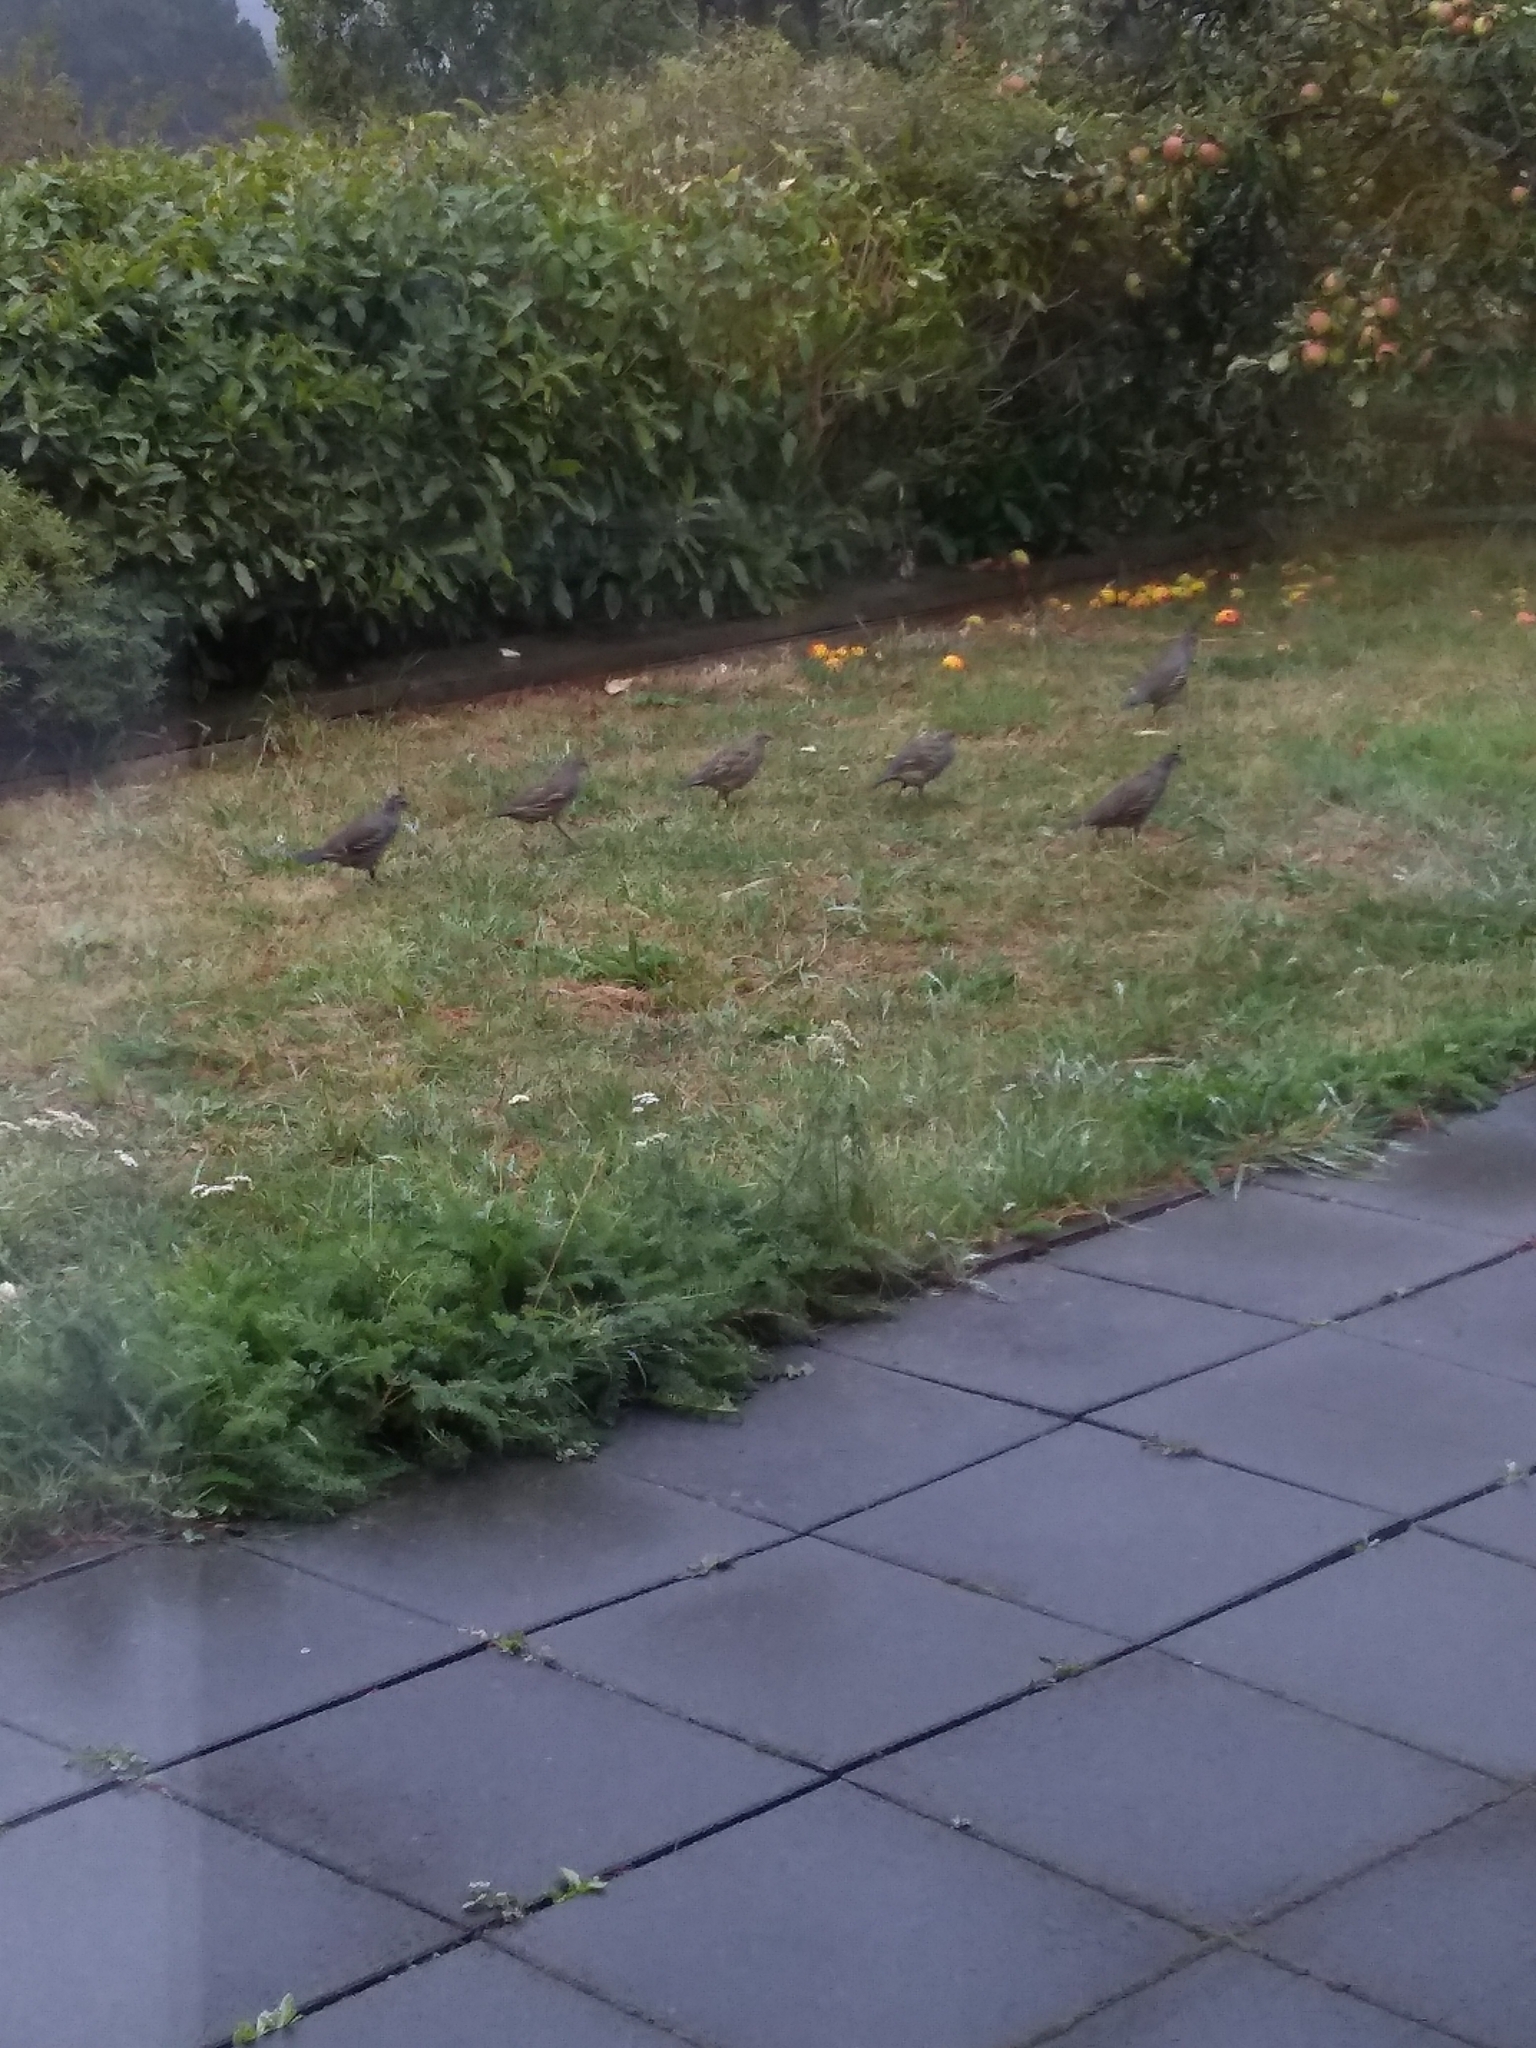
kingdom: Animalia
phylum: Chordata
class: Aves
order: Galliformes
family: Odontophoridae
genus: Callipepla
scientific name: Callipepla californica
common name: California quail
